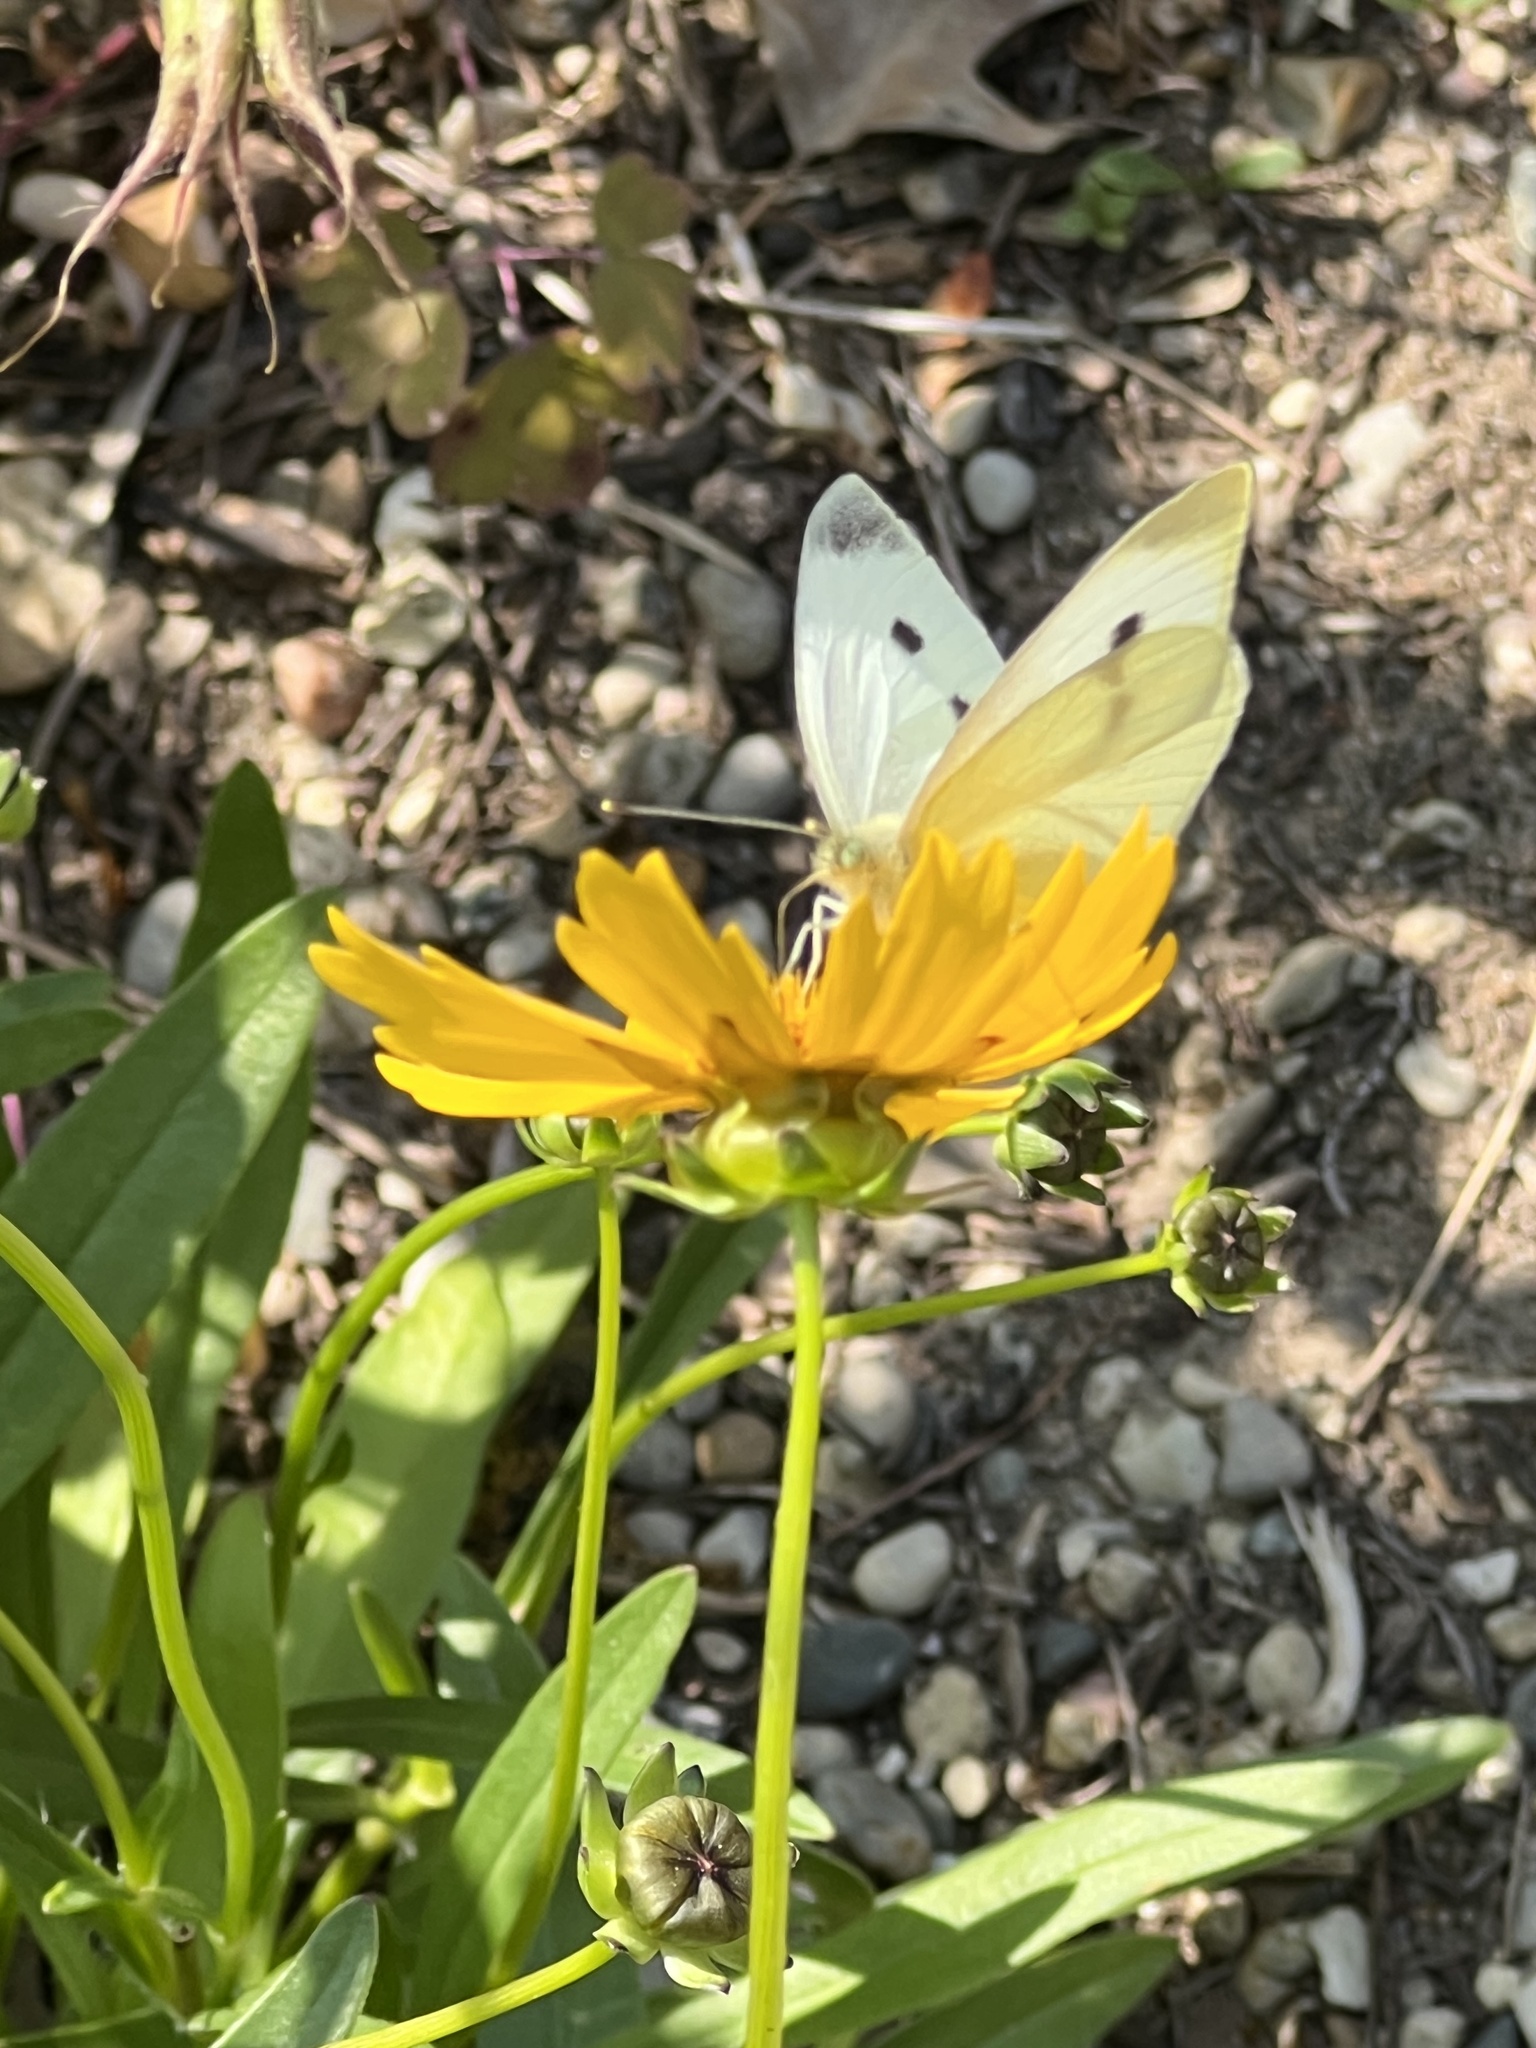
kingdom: Animalia
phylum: Arthropoda
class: Insecta
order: Lepidoptera
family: Pieridae
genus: Pieris
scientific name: Pieris rapae
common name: Small white
